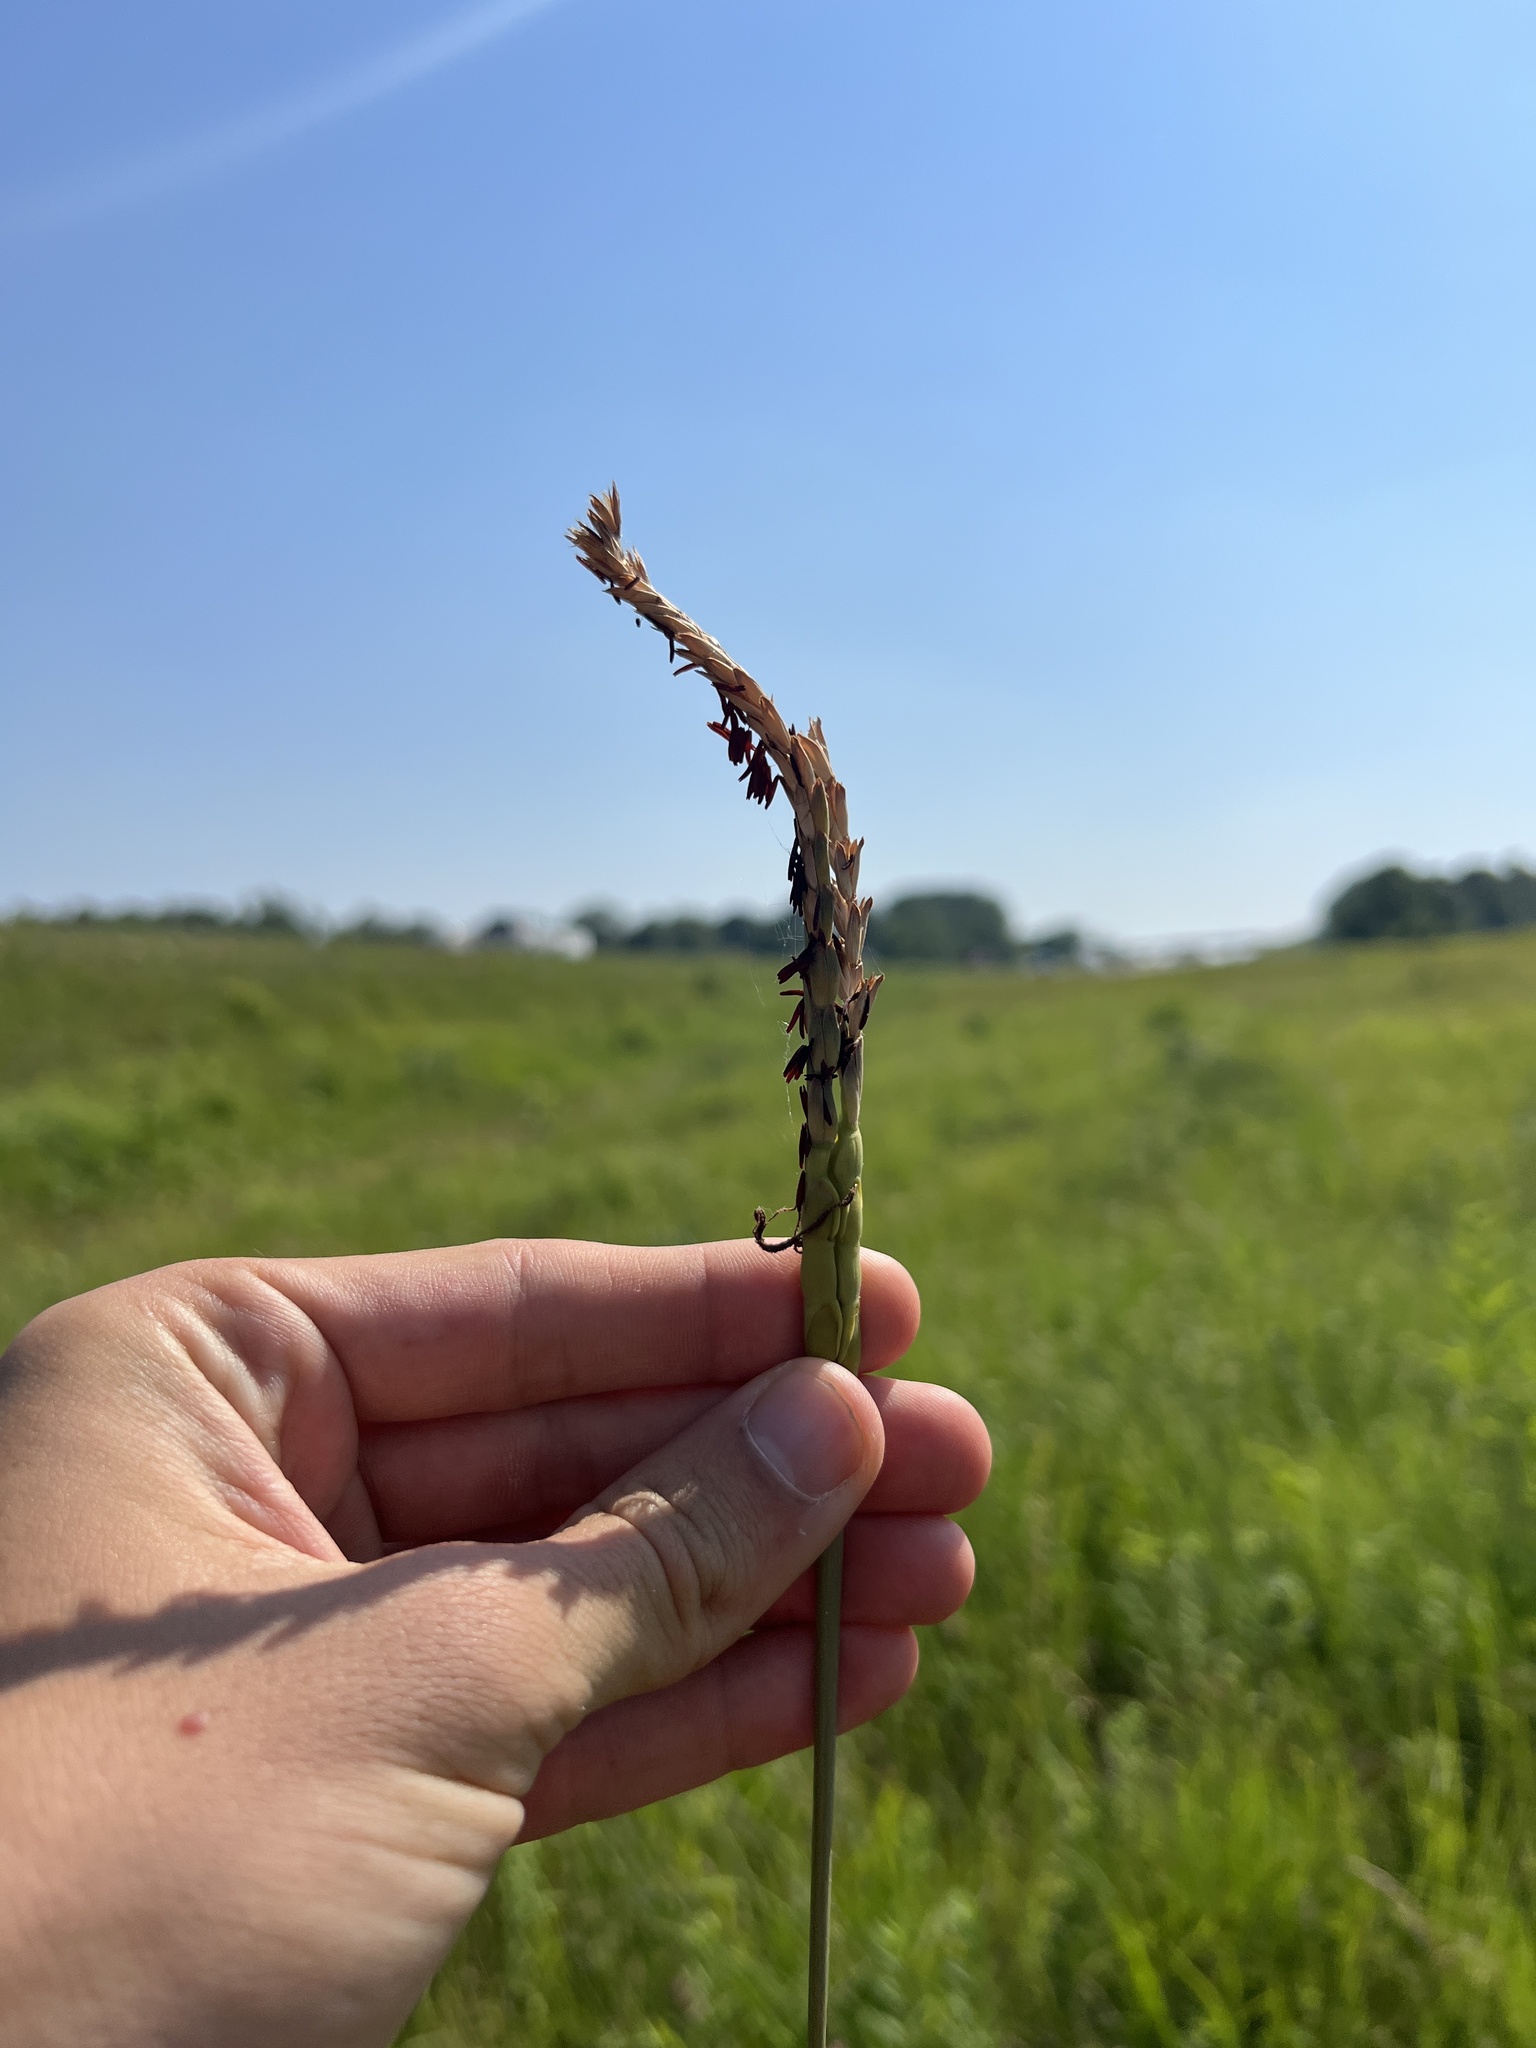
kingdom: Plantae
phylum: Tracheophyta
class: Liliopsida
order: Poales
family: Poaceae
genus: Tripsacum
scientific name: Tripsacum dactyloides
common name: Buffalo-grass
